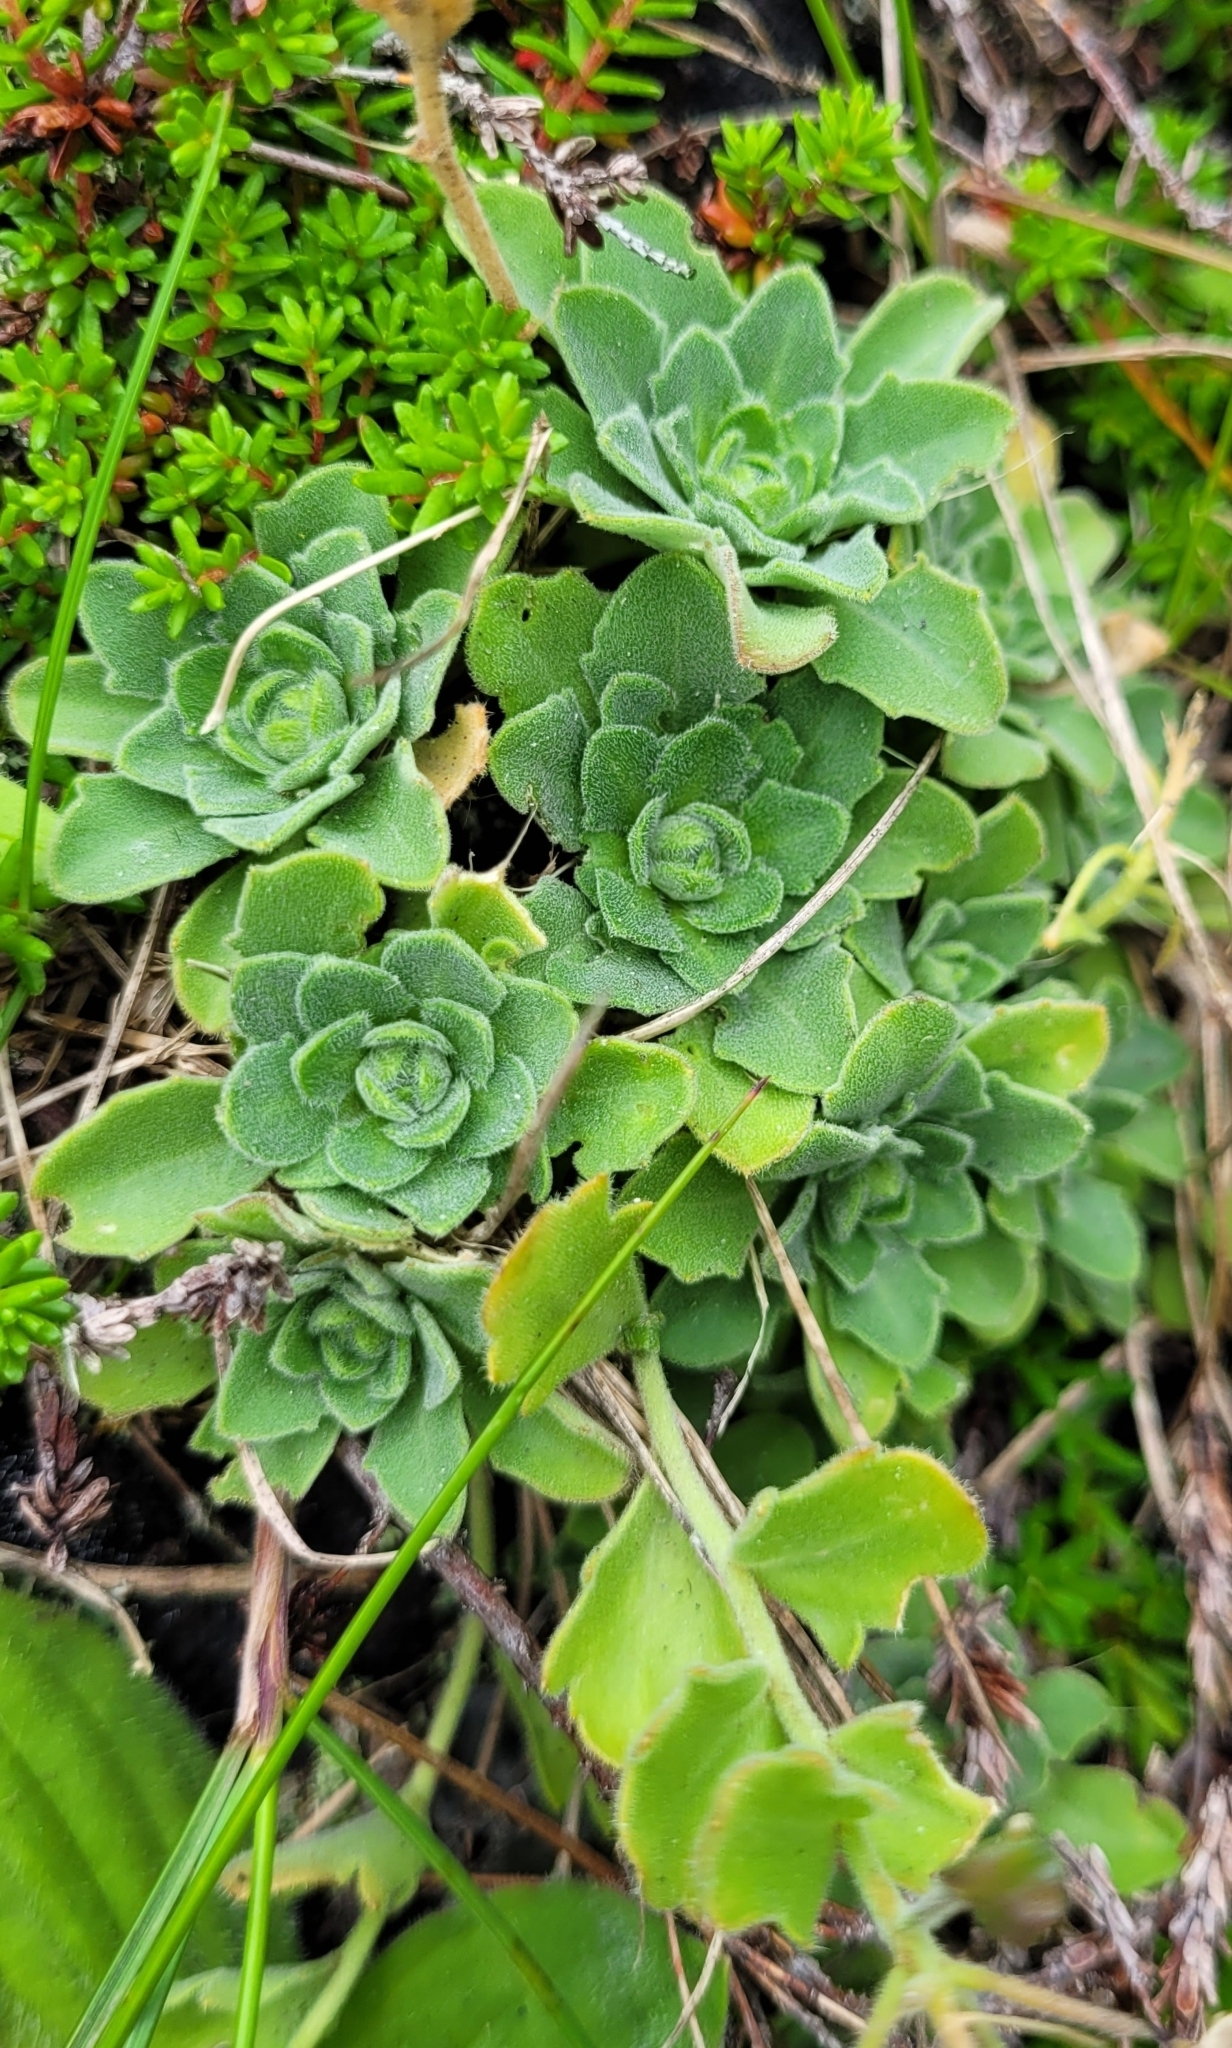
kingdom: Plantae
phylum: Tracheophyta
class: Magnoliopsida
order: Brassicales
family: Brassicaceae
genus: Draba
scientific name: Draba borealis
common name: Boreal draba
